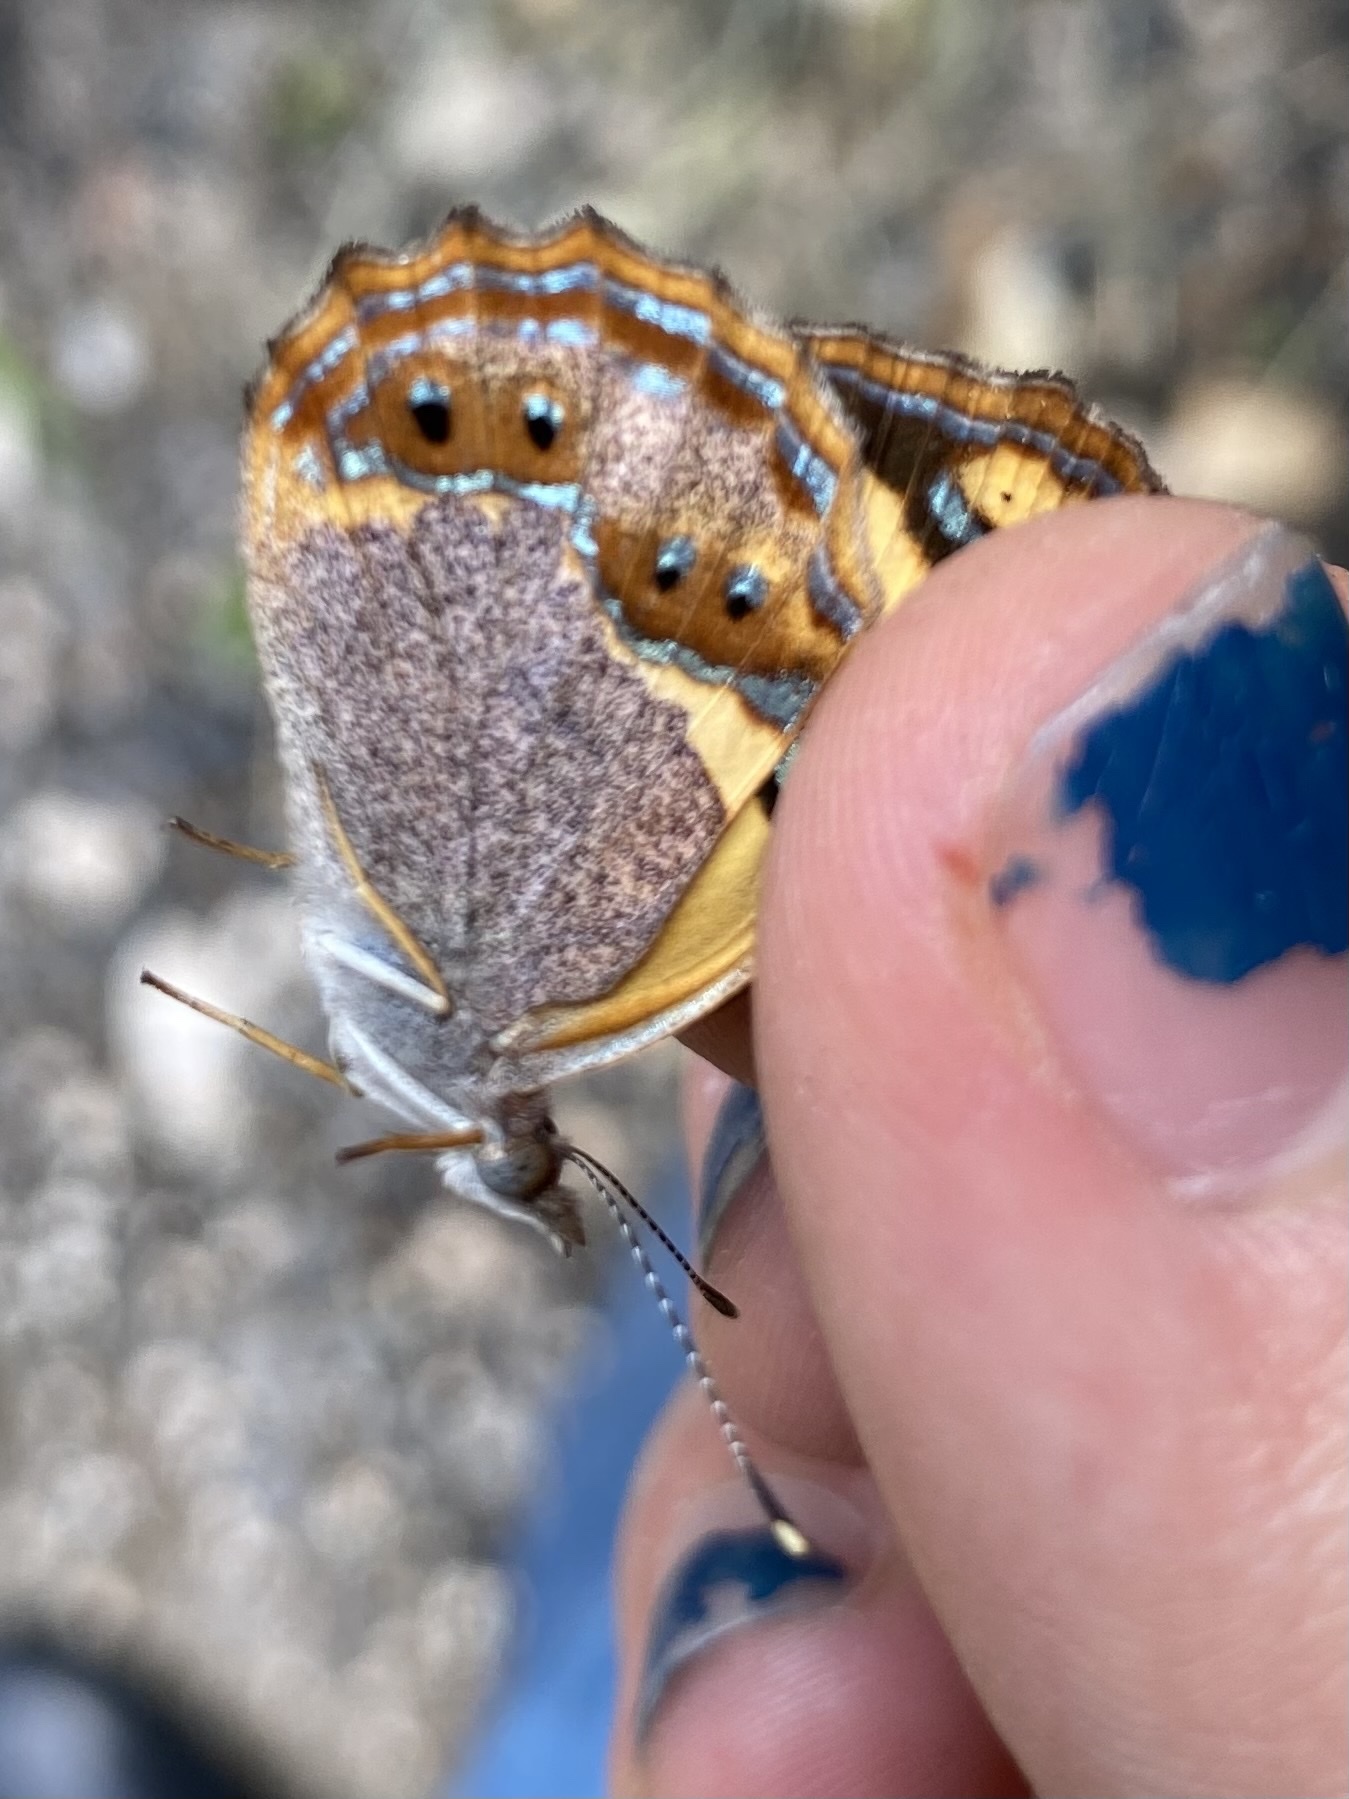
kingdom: Animalia
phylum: Arthropoda
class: Insecta
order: Lepidoptera
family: Nymphalidae
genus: Bolboneura
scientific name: Bolboneura sylphis
